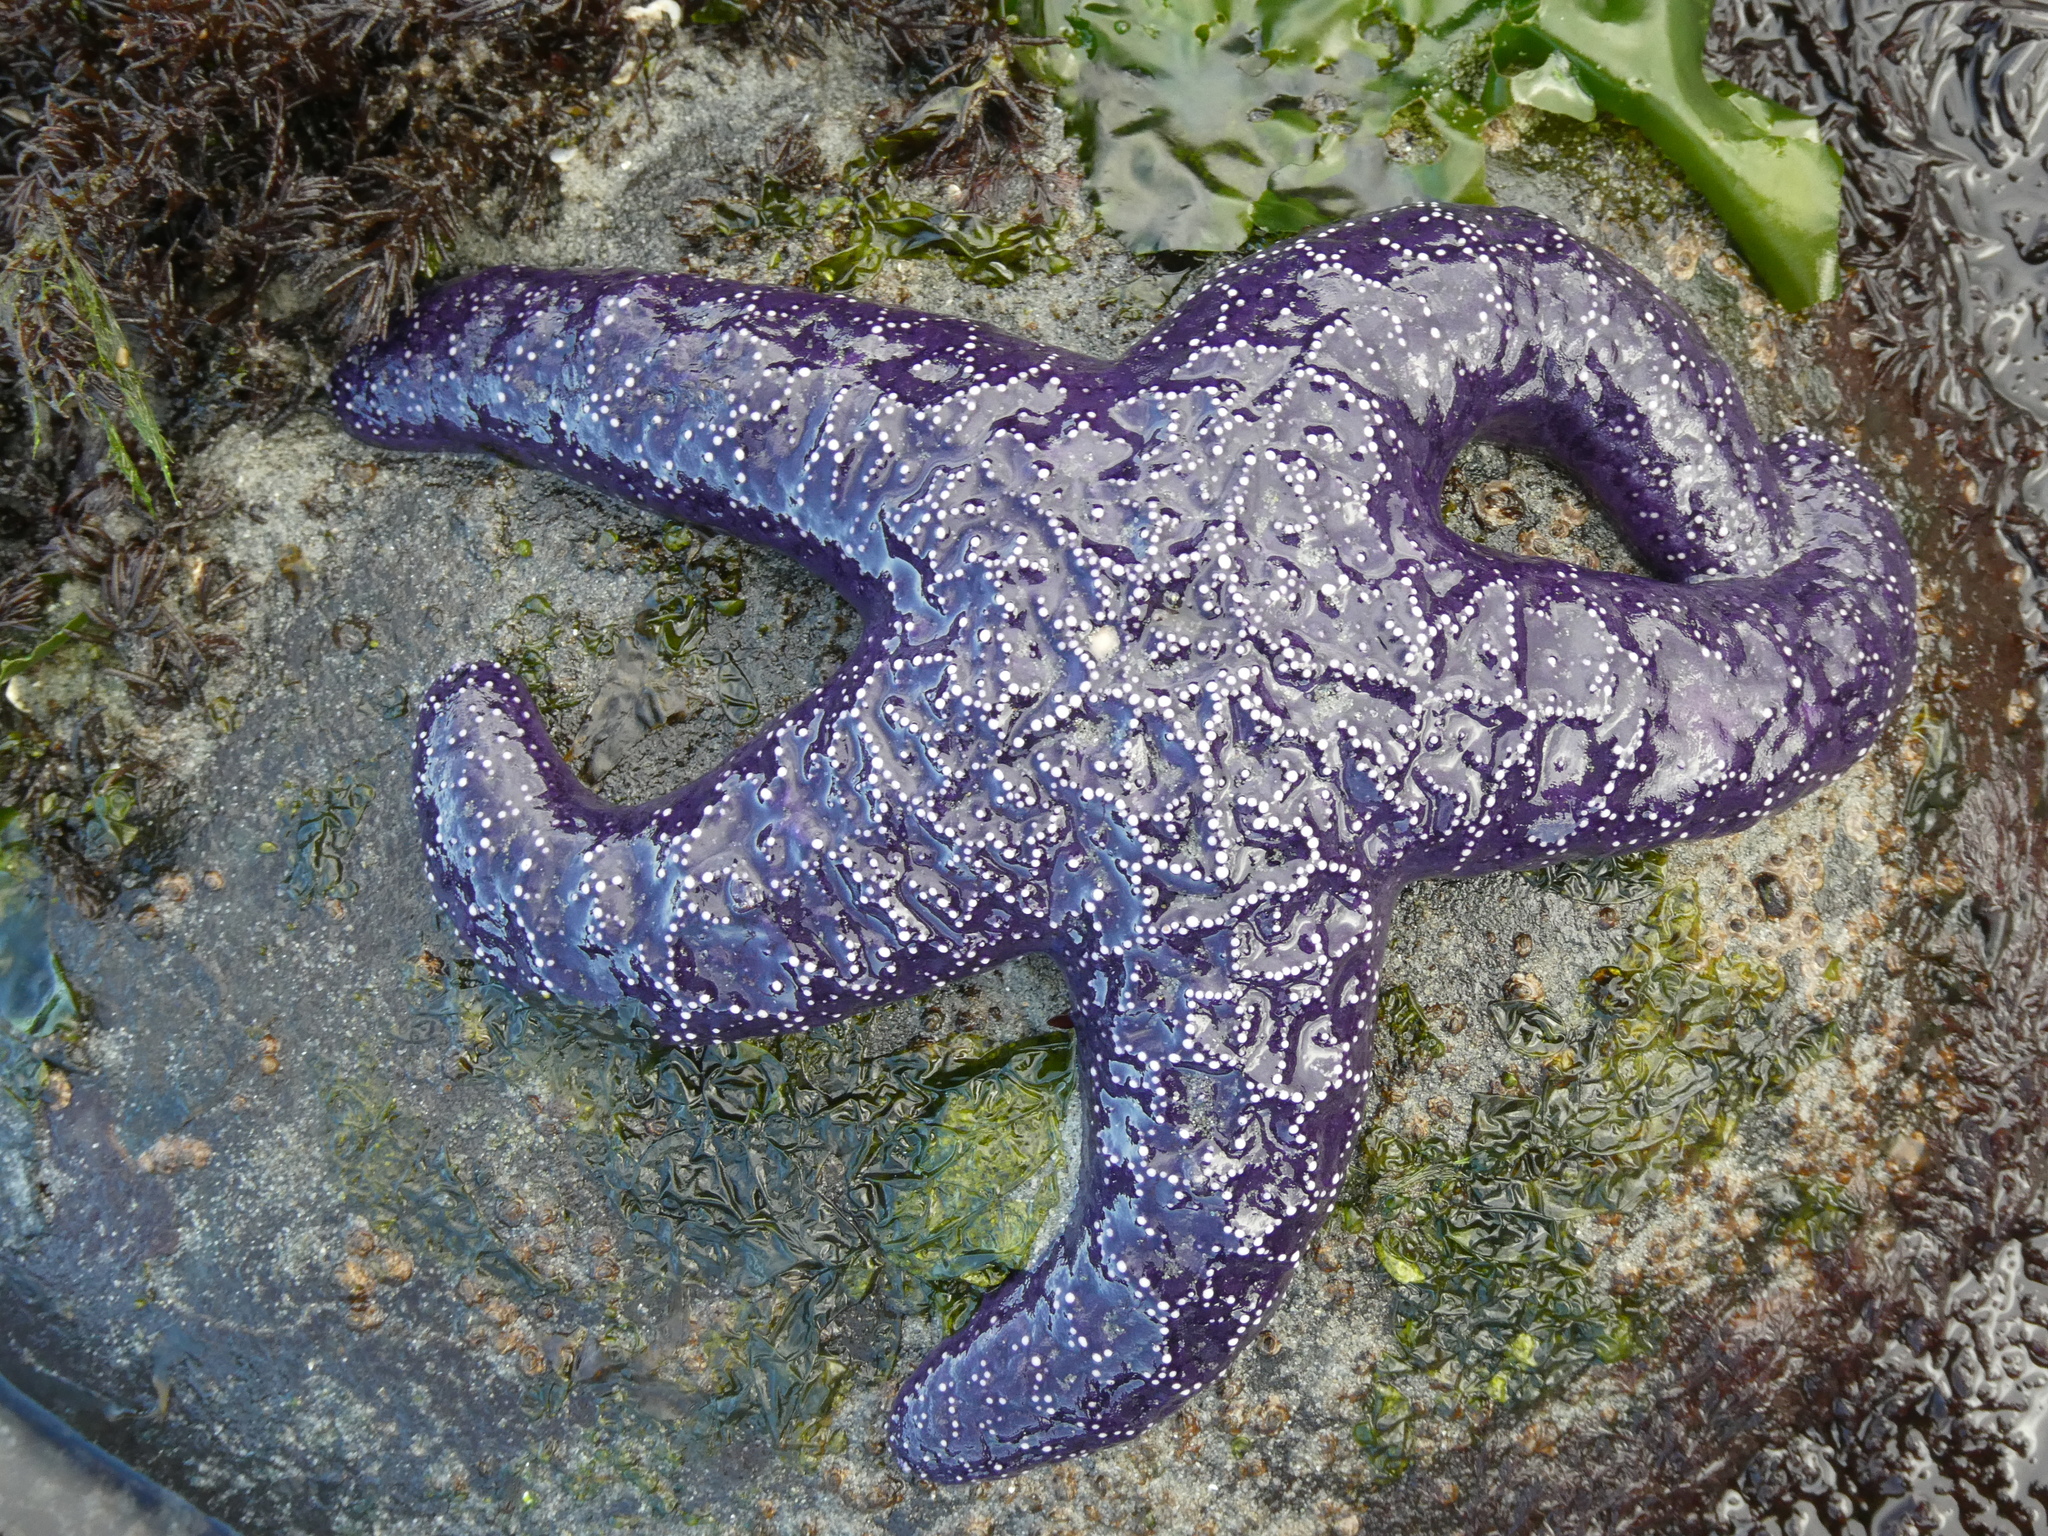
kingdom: Animalia
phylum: Echinodermata
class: Asteroidea
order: Forcipulatida
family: Asteriidae
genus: Pisaster
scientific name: Pisaster ochraceus
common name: Ochre stars
